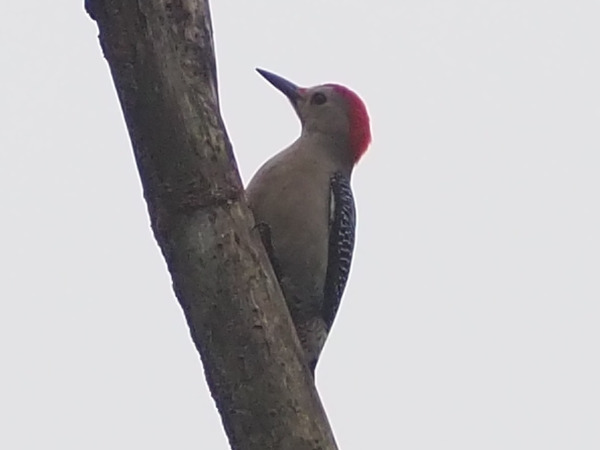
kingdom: Animalia
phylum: Chordata
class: Aves
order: Piciformes
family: Picidae
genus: Melanerpes
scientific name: Melanerpes aurifrons
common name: Golden-fronted woodpecker
